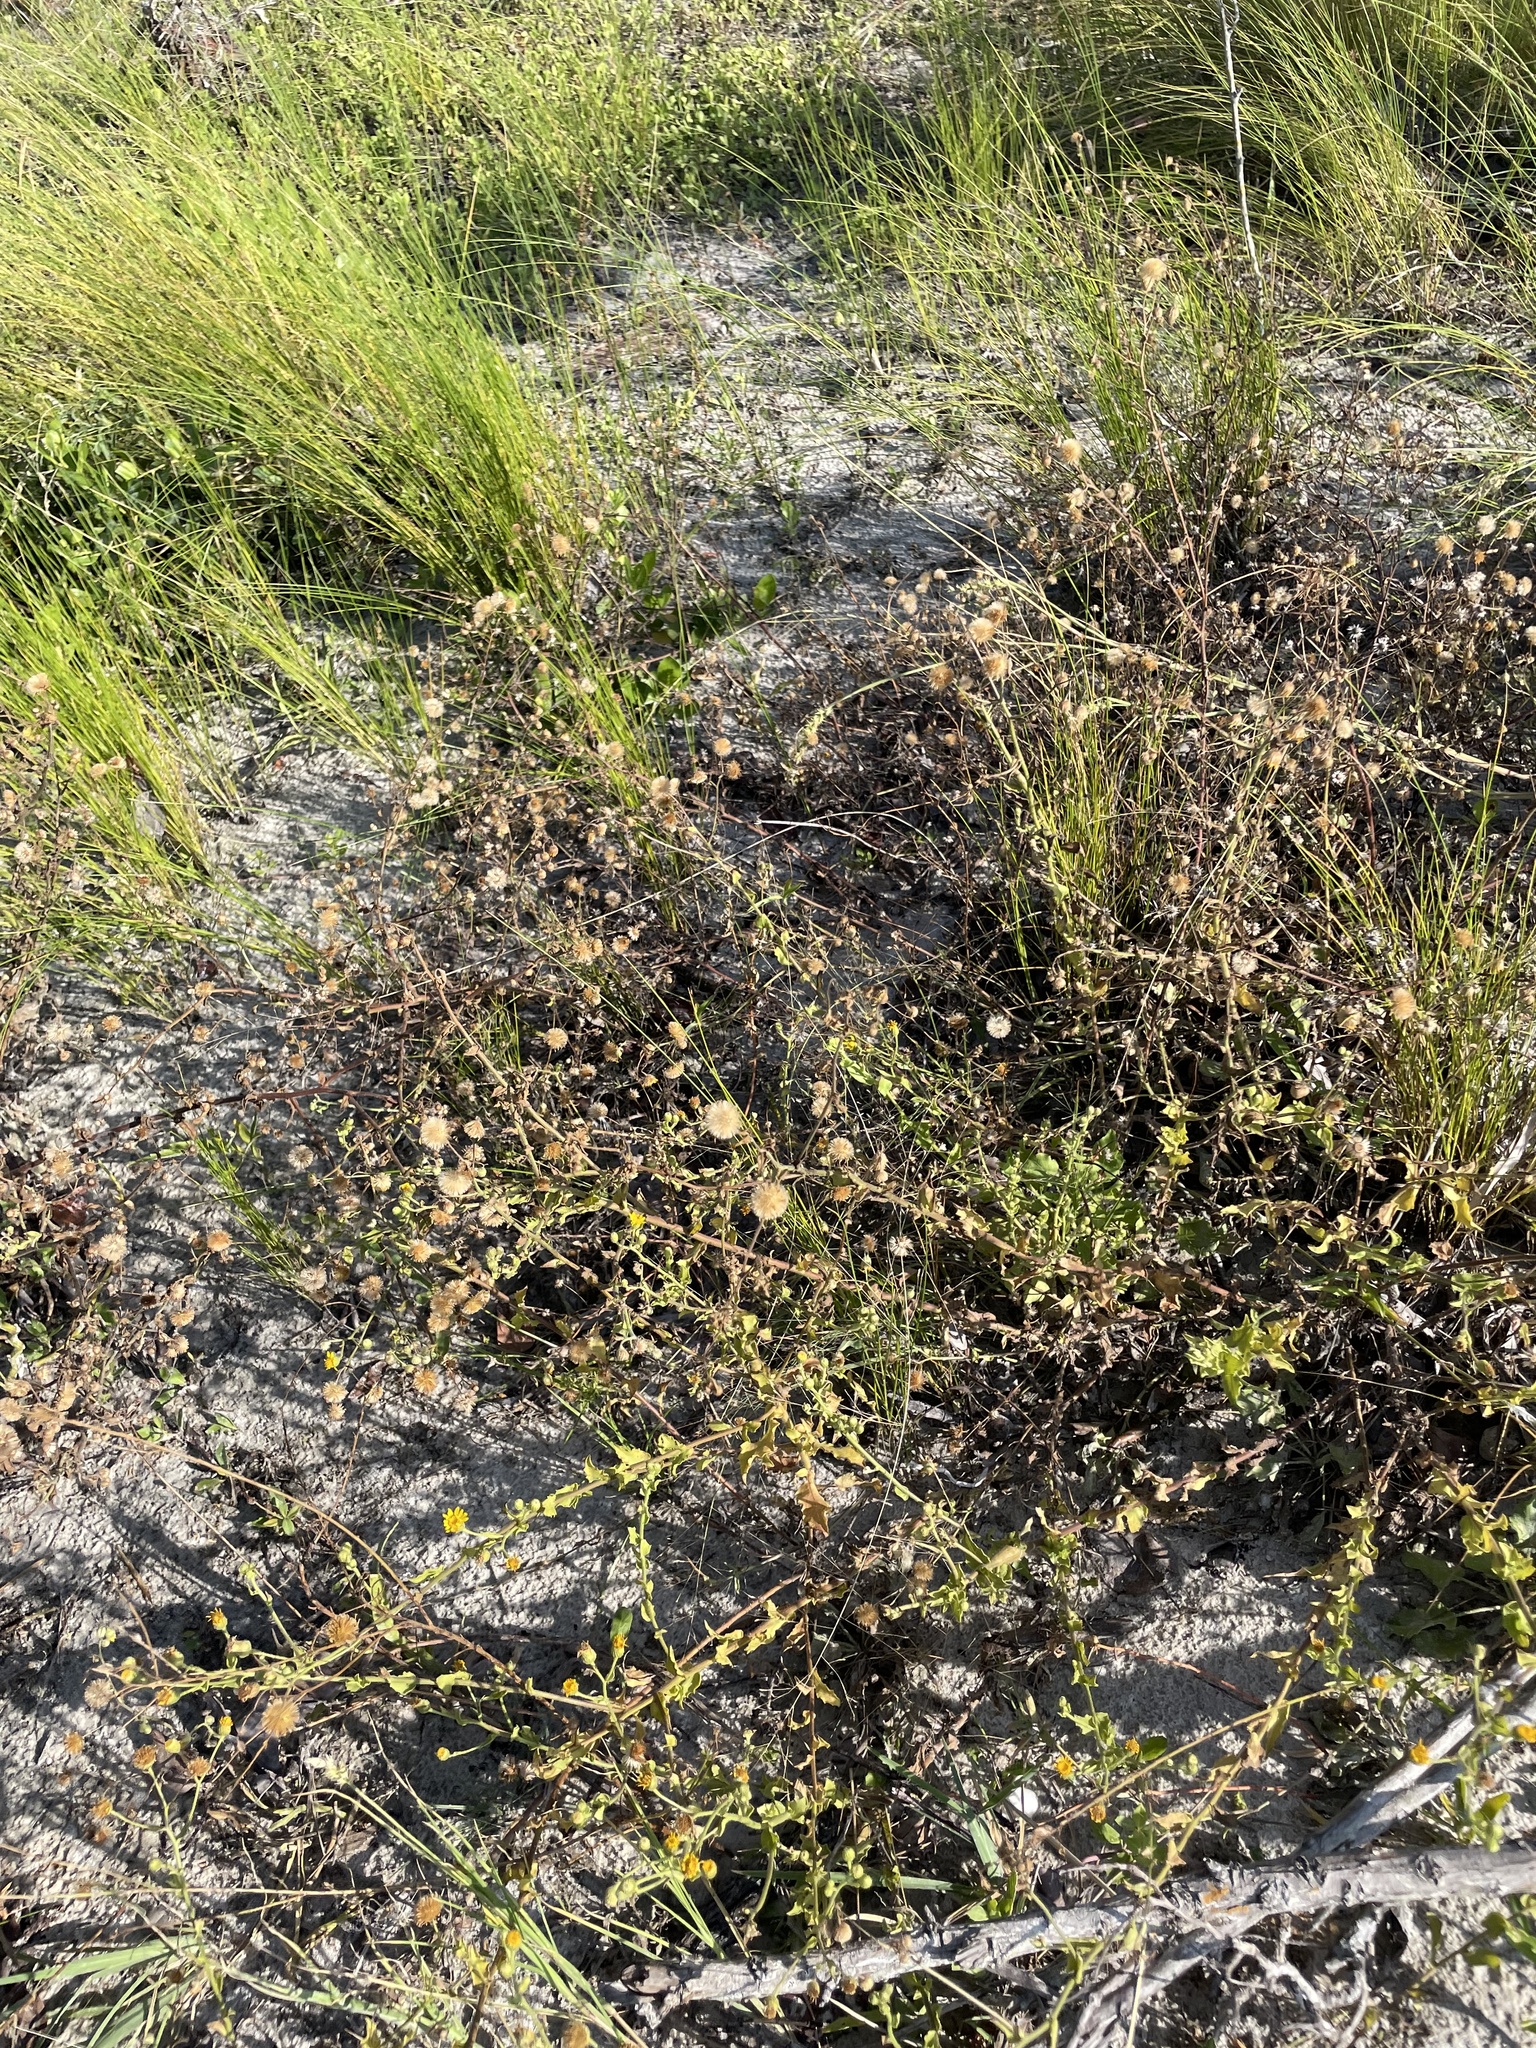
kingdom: Plantae
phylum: Tracheophyta
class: Magnoliopsida
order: Asterales
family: Asteraceae
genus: Heterotheca
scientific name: Heterotheca subaxillaris
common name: Camphorweed
